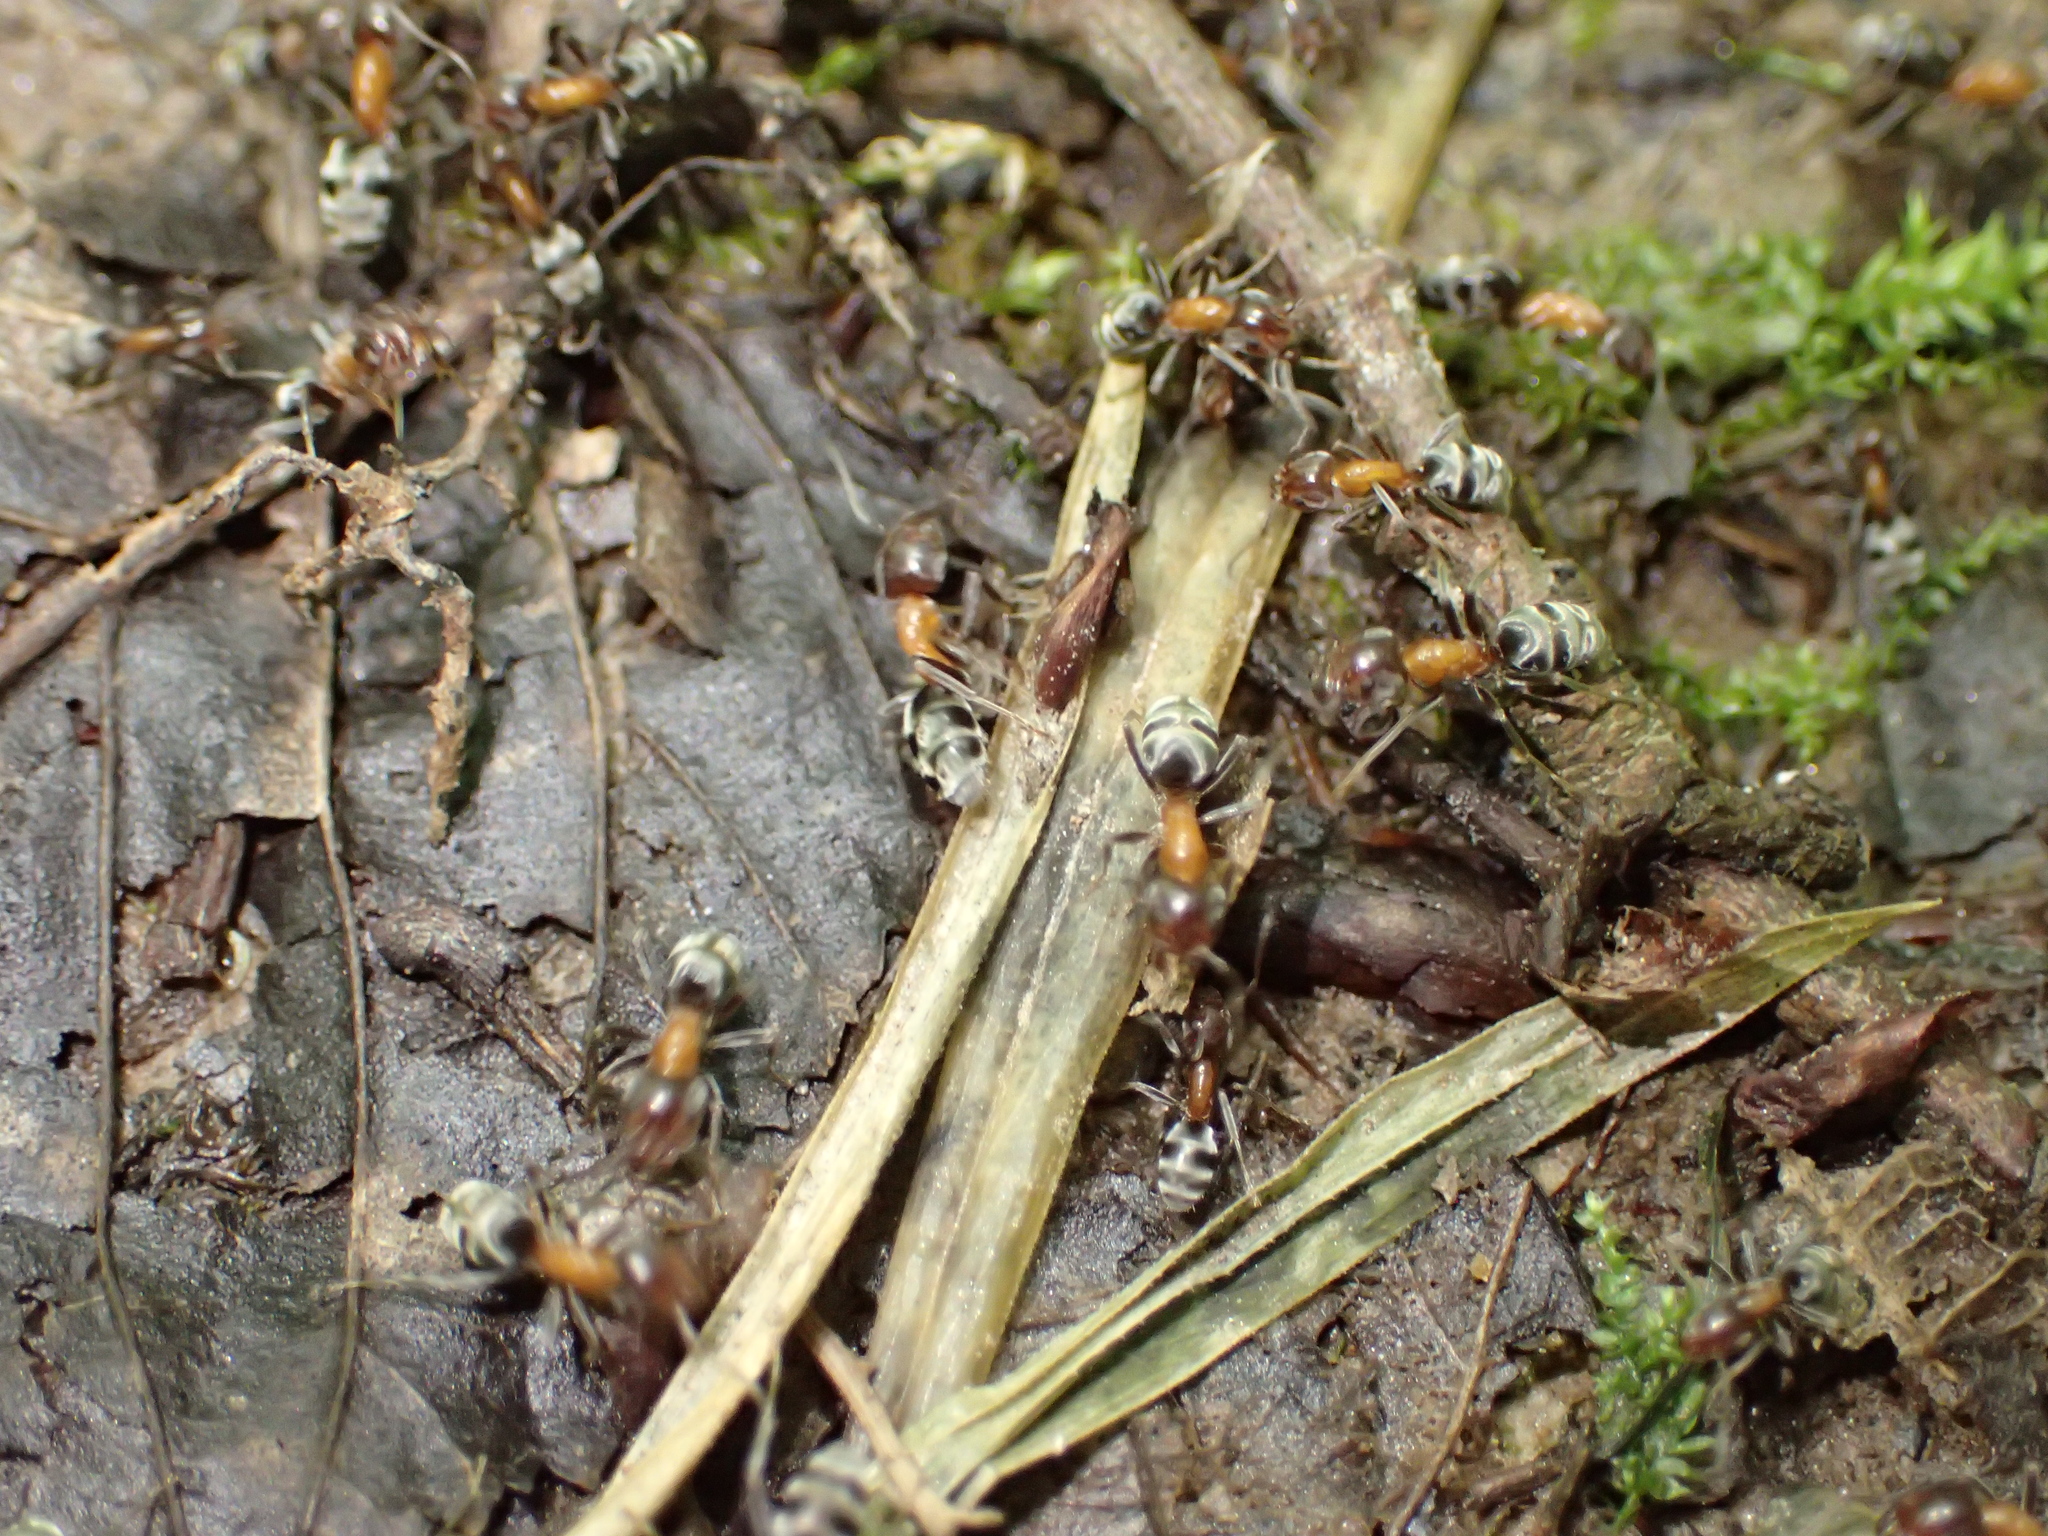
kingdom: Animalia
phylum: Arthropoda
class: Insecta
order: Hymenoptera
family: Formicidae
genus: Liometopum
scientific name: Liometopum microcephalum
